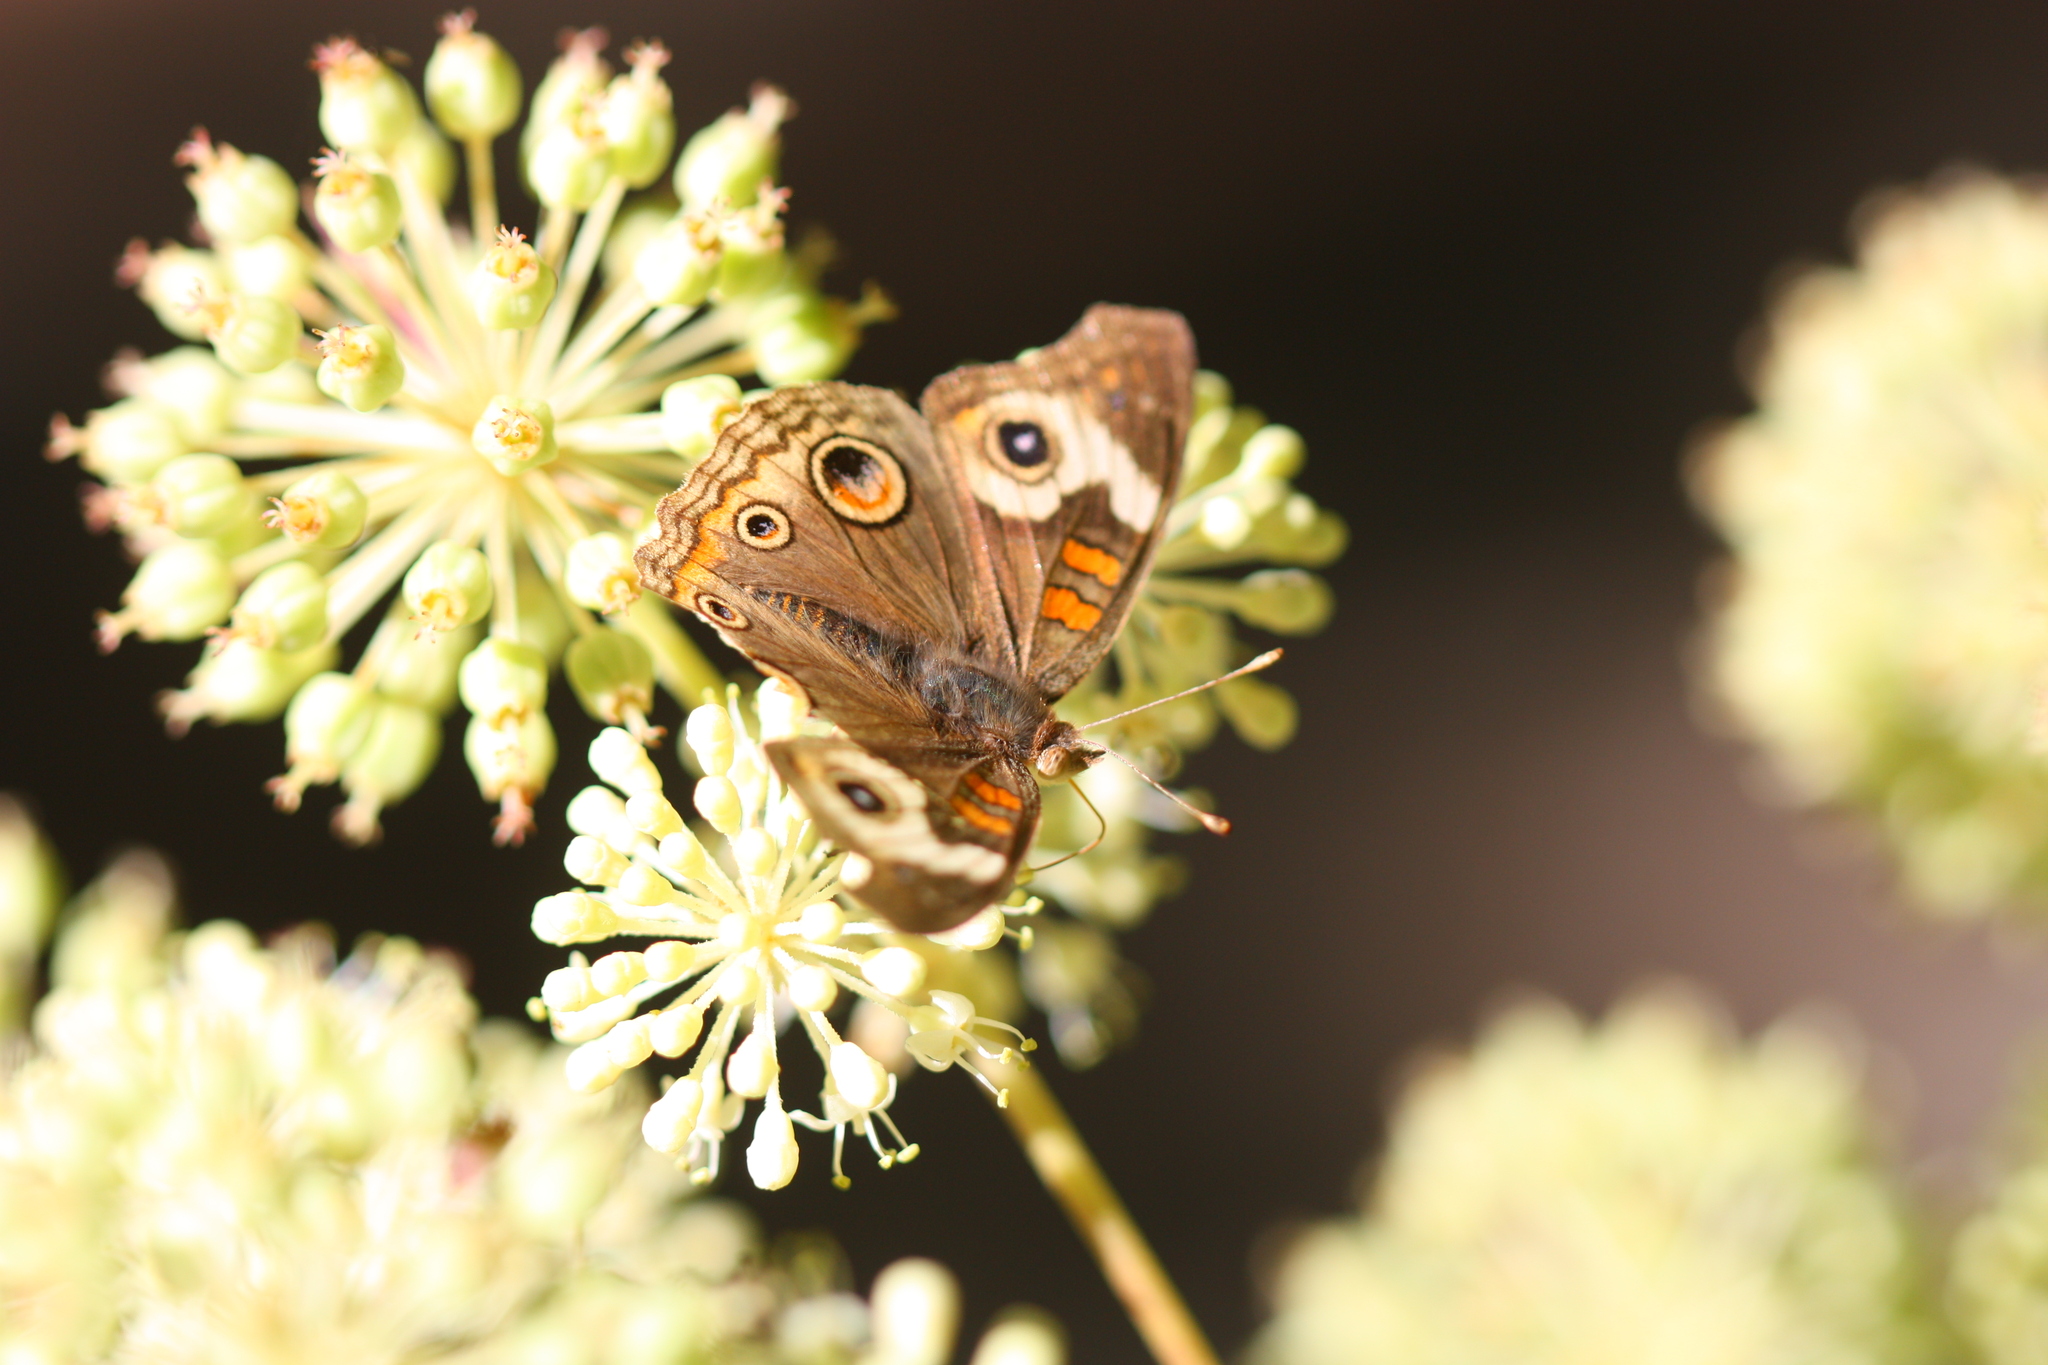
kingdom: Animalia
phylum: Arthropoda
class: Insecta
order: Lepidoptera
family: Nymphalidae
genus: Junonia
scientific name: Junonia grisea
